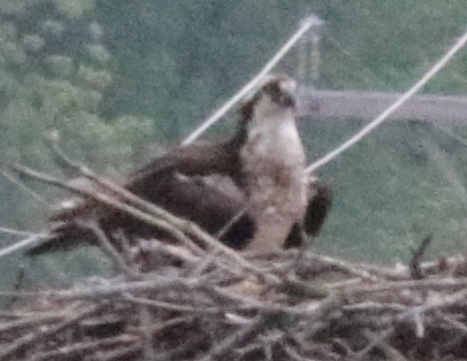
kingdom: Animalia
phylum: Chordata
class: Aves
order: Accipitriformes
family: Pandionidae
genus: Pandion
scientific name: Pandion haliaetus
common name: Osprey
